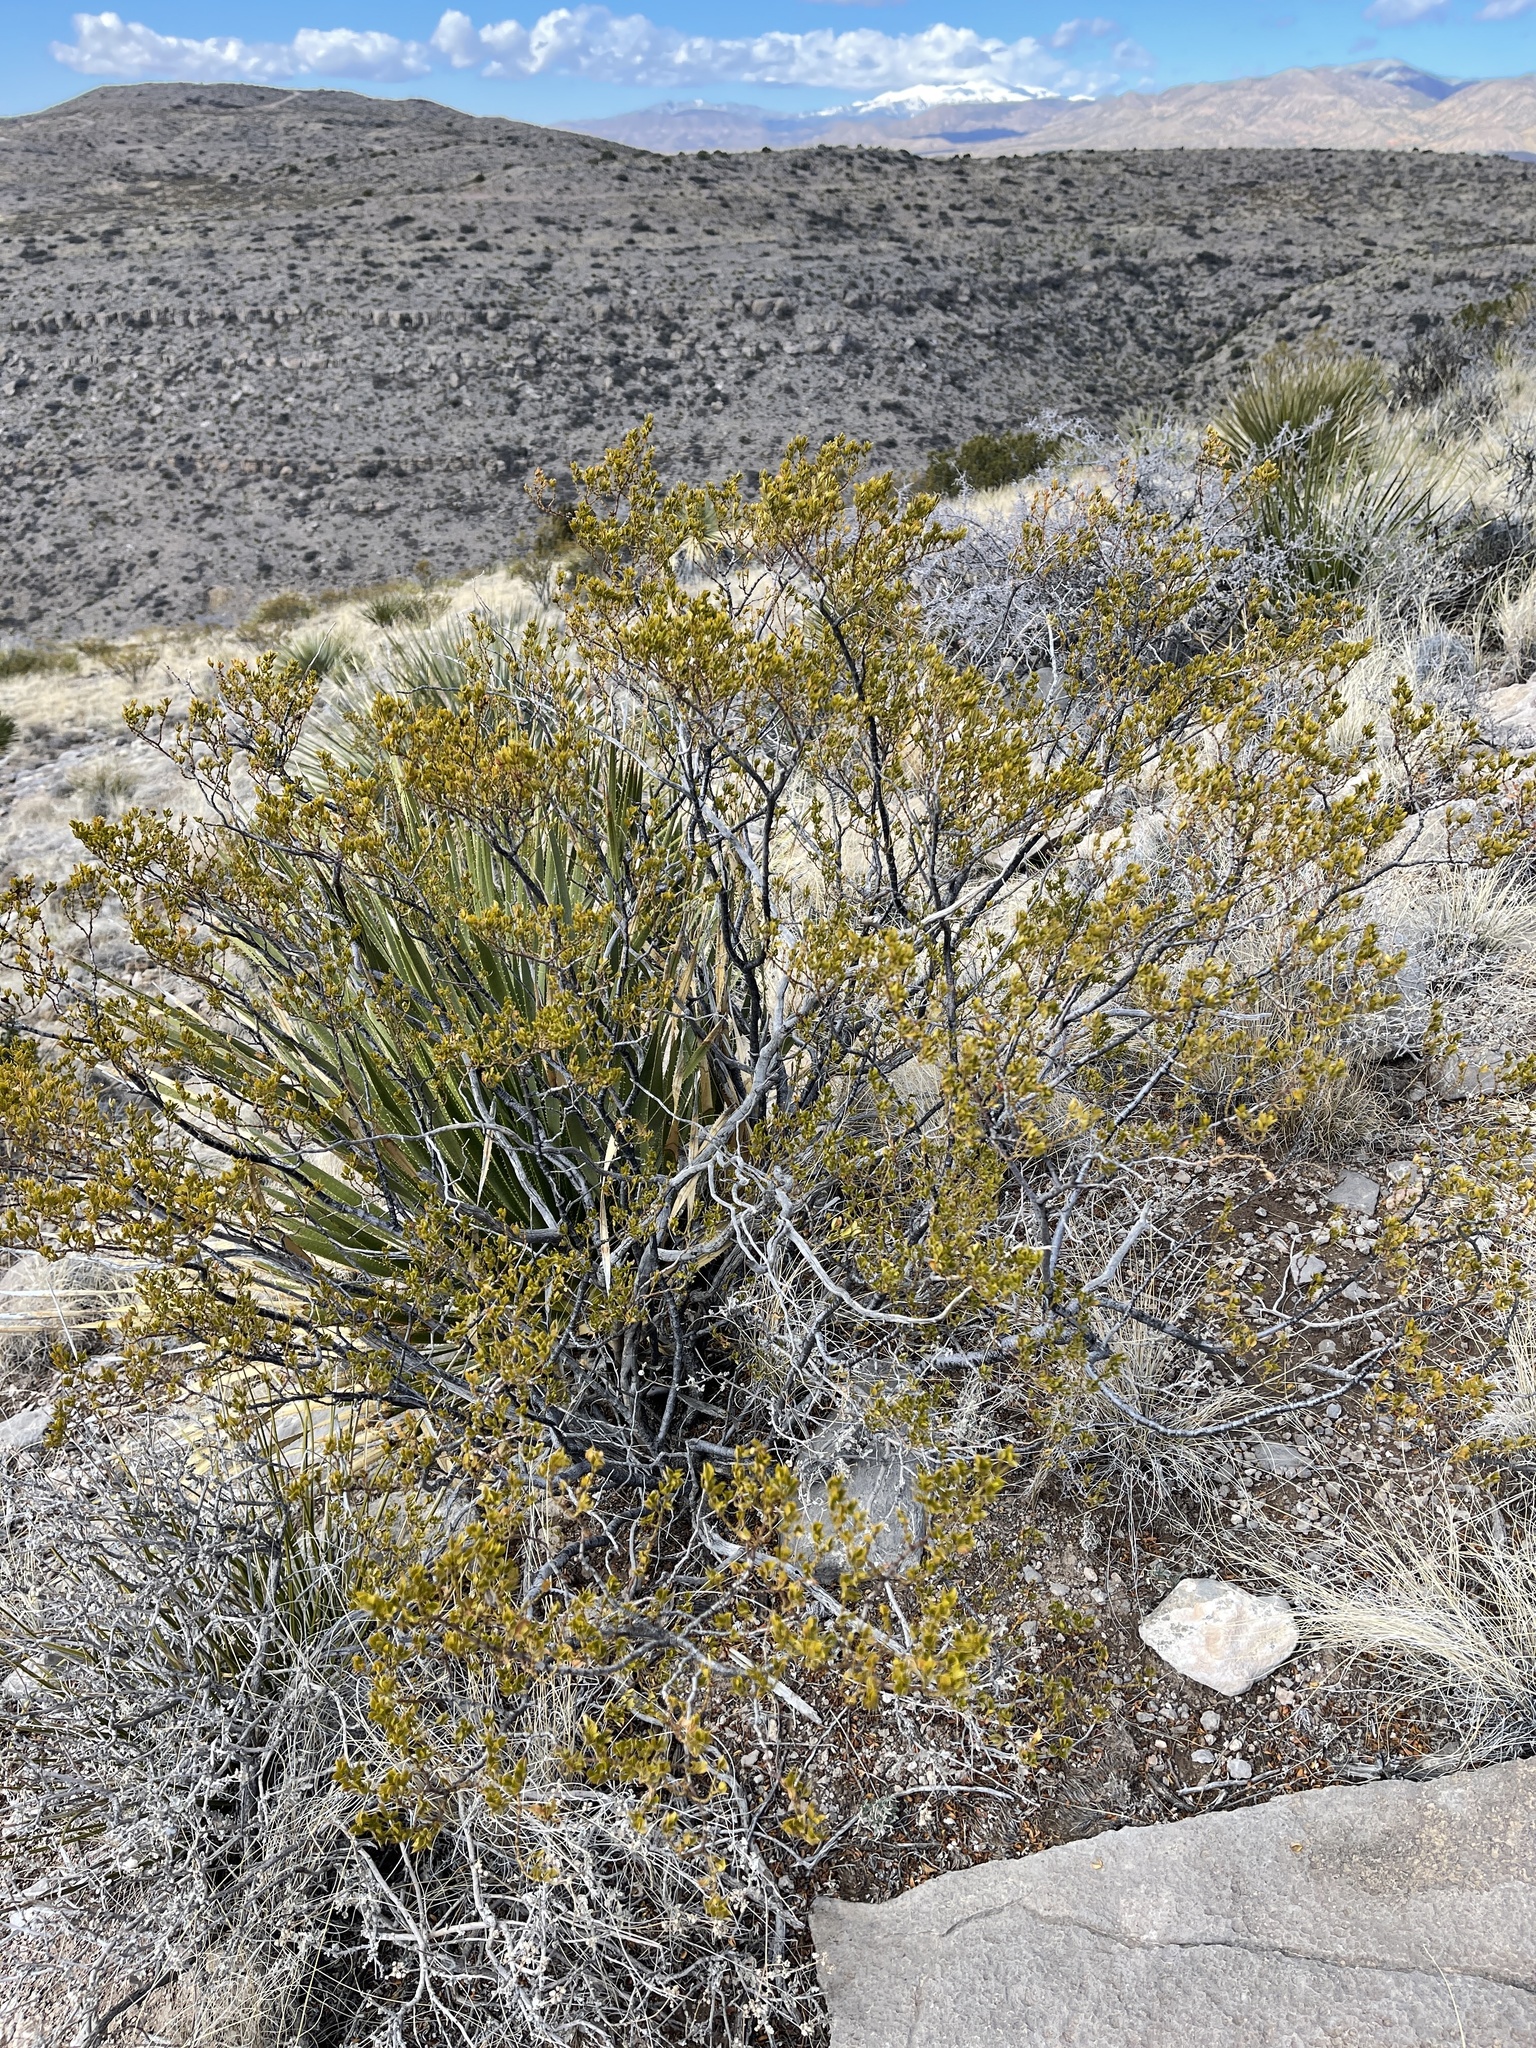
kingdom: Plantae
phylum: Tracheophyta
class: Magnoliopsida
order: Zygophyllales
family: Zygophyllaceae
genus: Larrea
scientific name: Larrea tridentata
